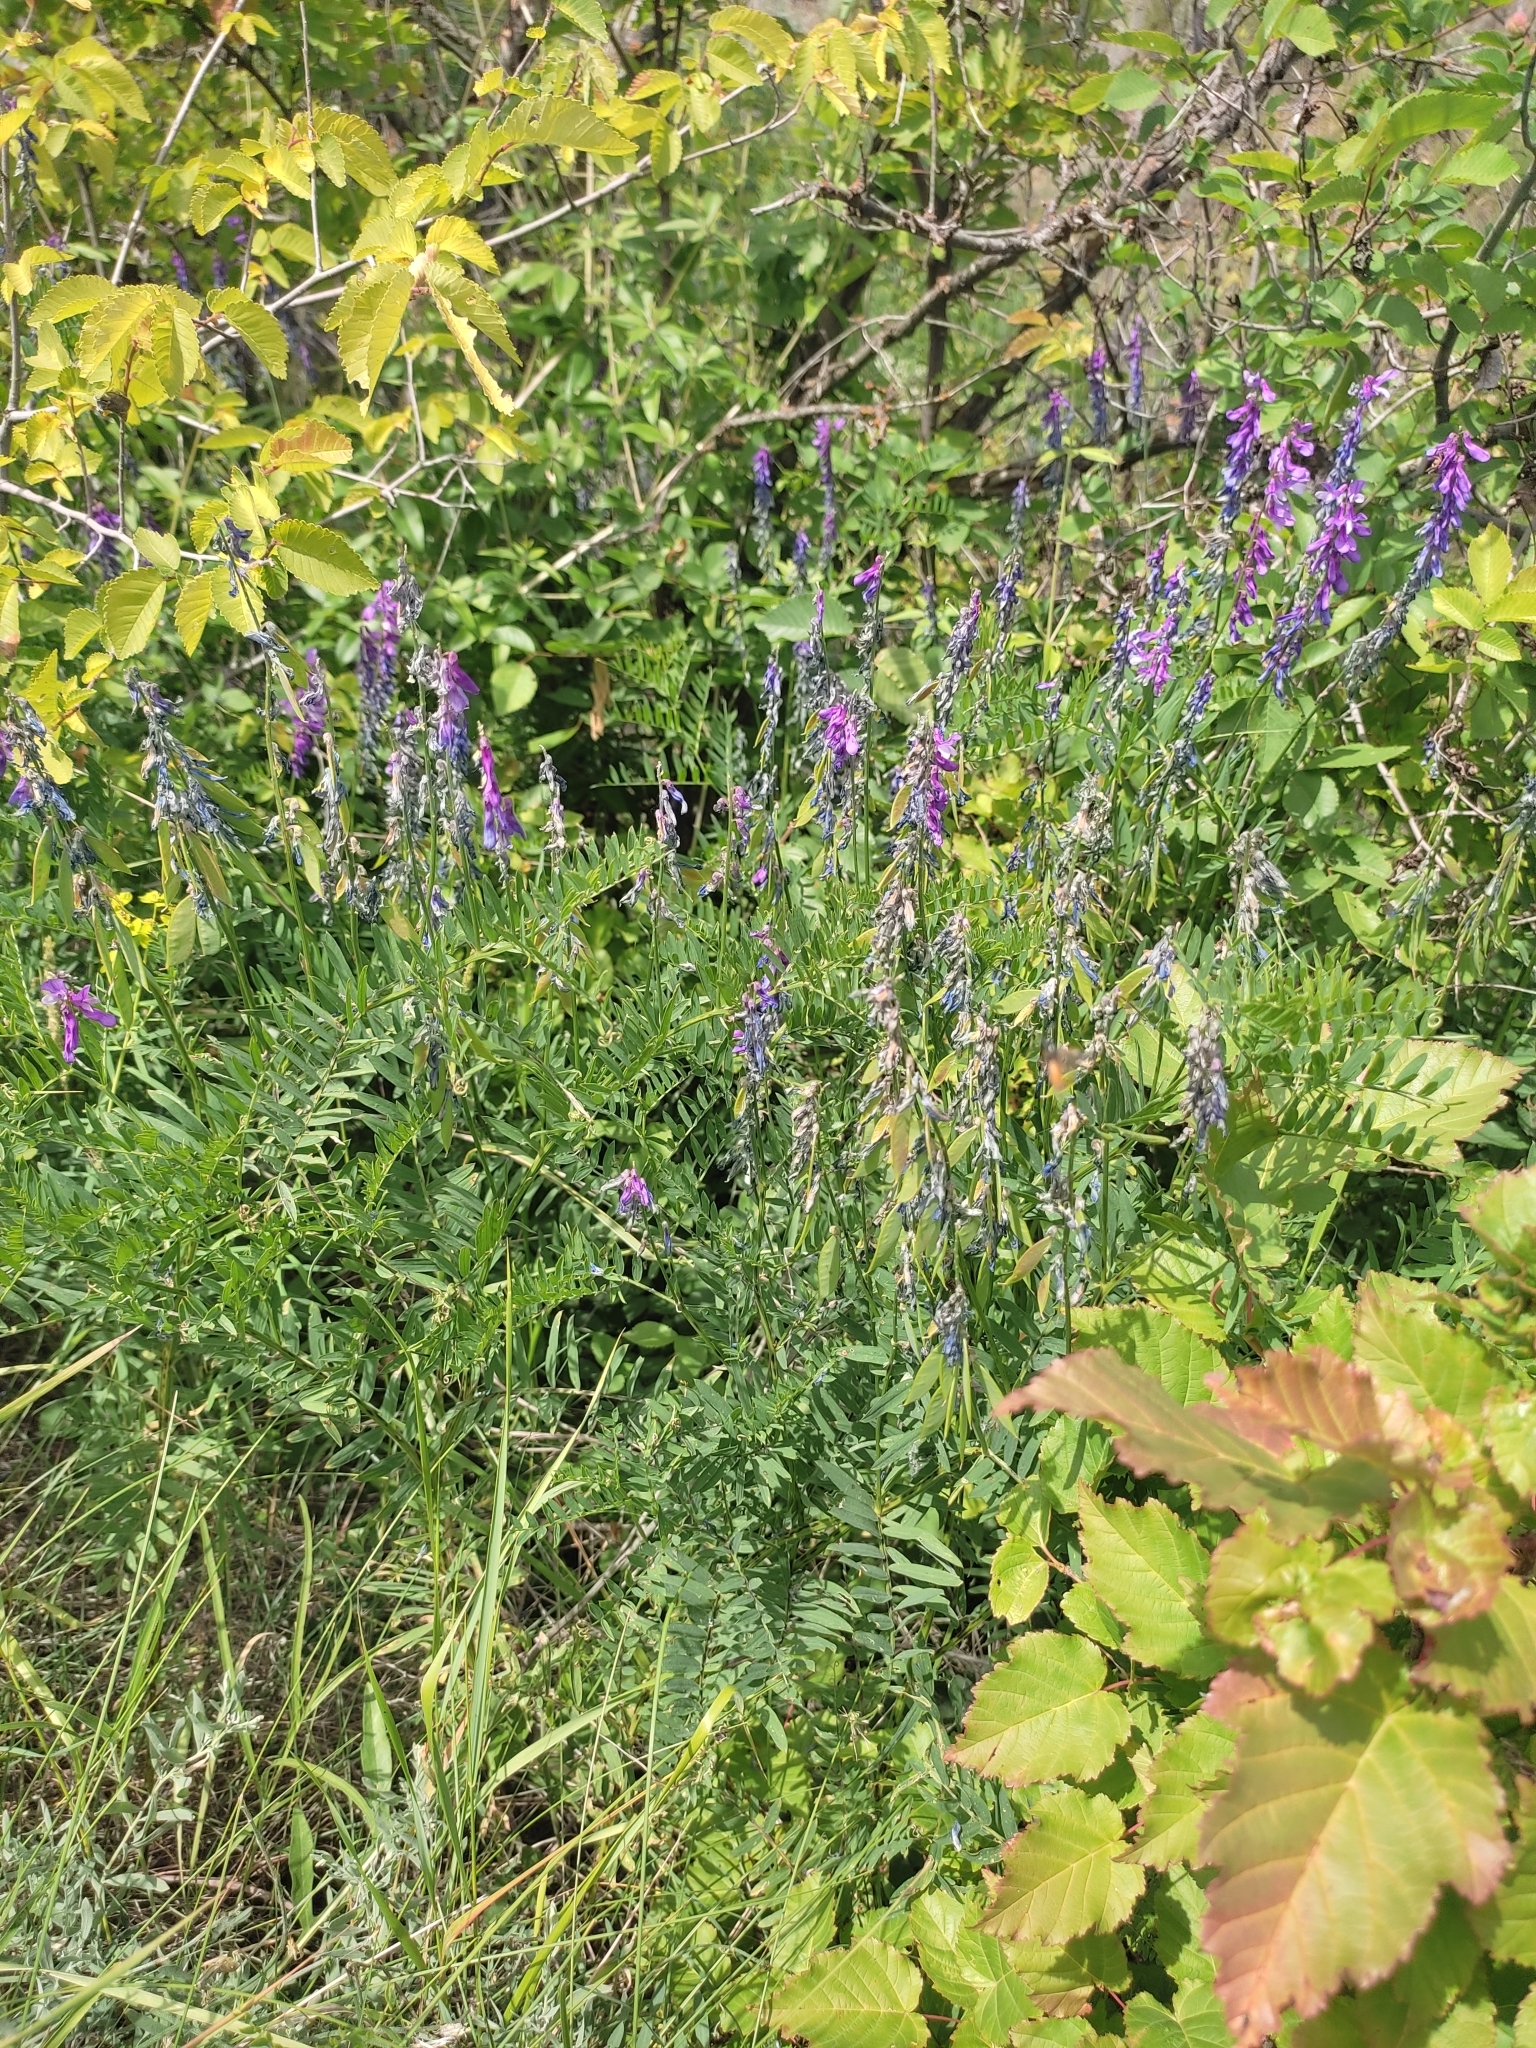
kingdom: Plantae
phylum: Tracheophyta
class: Magnoliopsida
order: Fabales
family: Fabaceae
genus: Vicia
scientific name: Vicia tenuifolia
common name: Fine-leaved vetch
